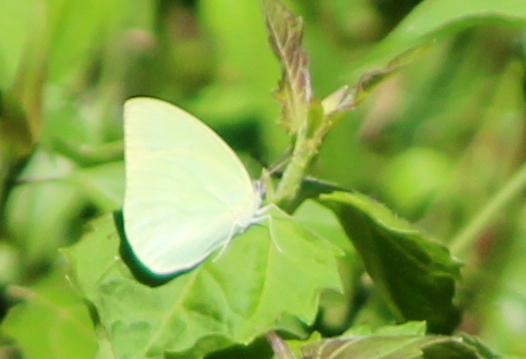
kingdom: Animalia
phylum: Arthropoda
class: Insecta
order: Lepidoptera
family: Pieridae
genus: Catopsilia
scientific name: Catopsilia pomona
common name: Common emigrant
